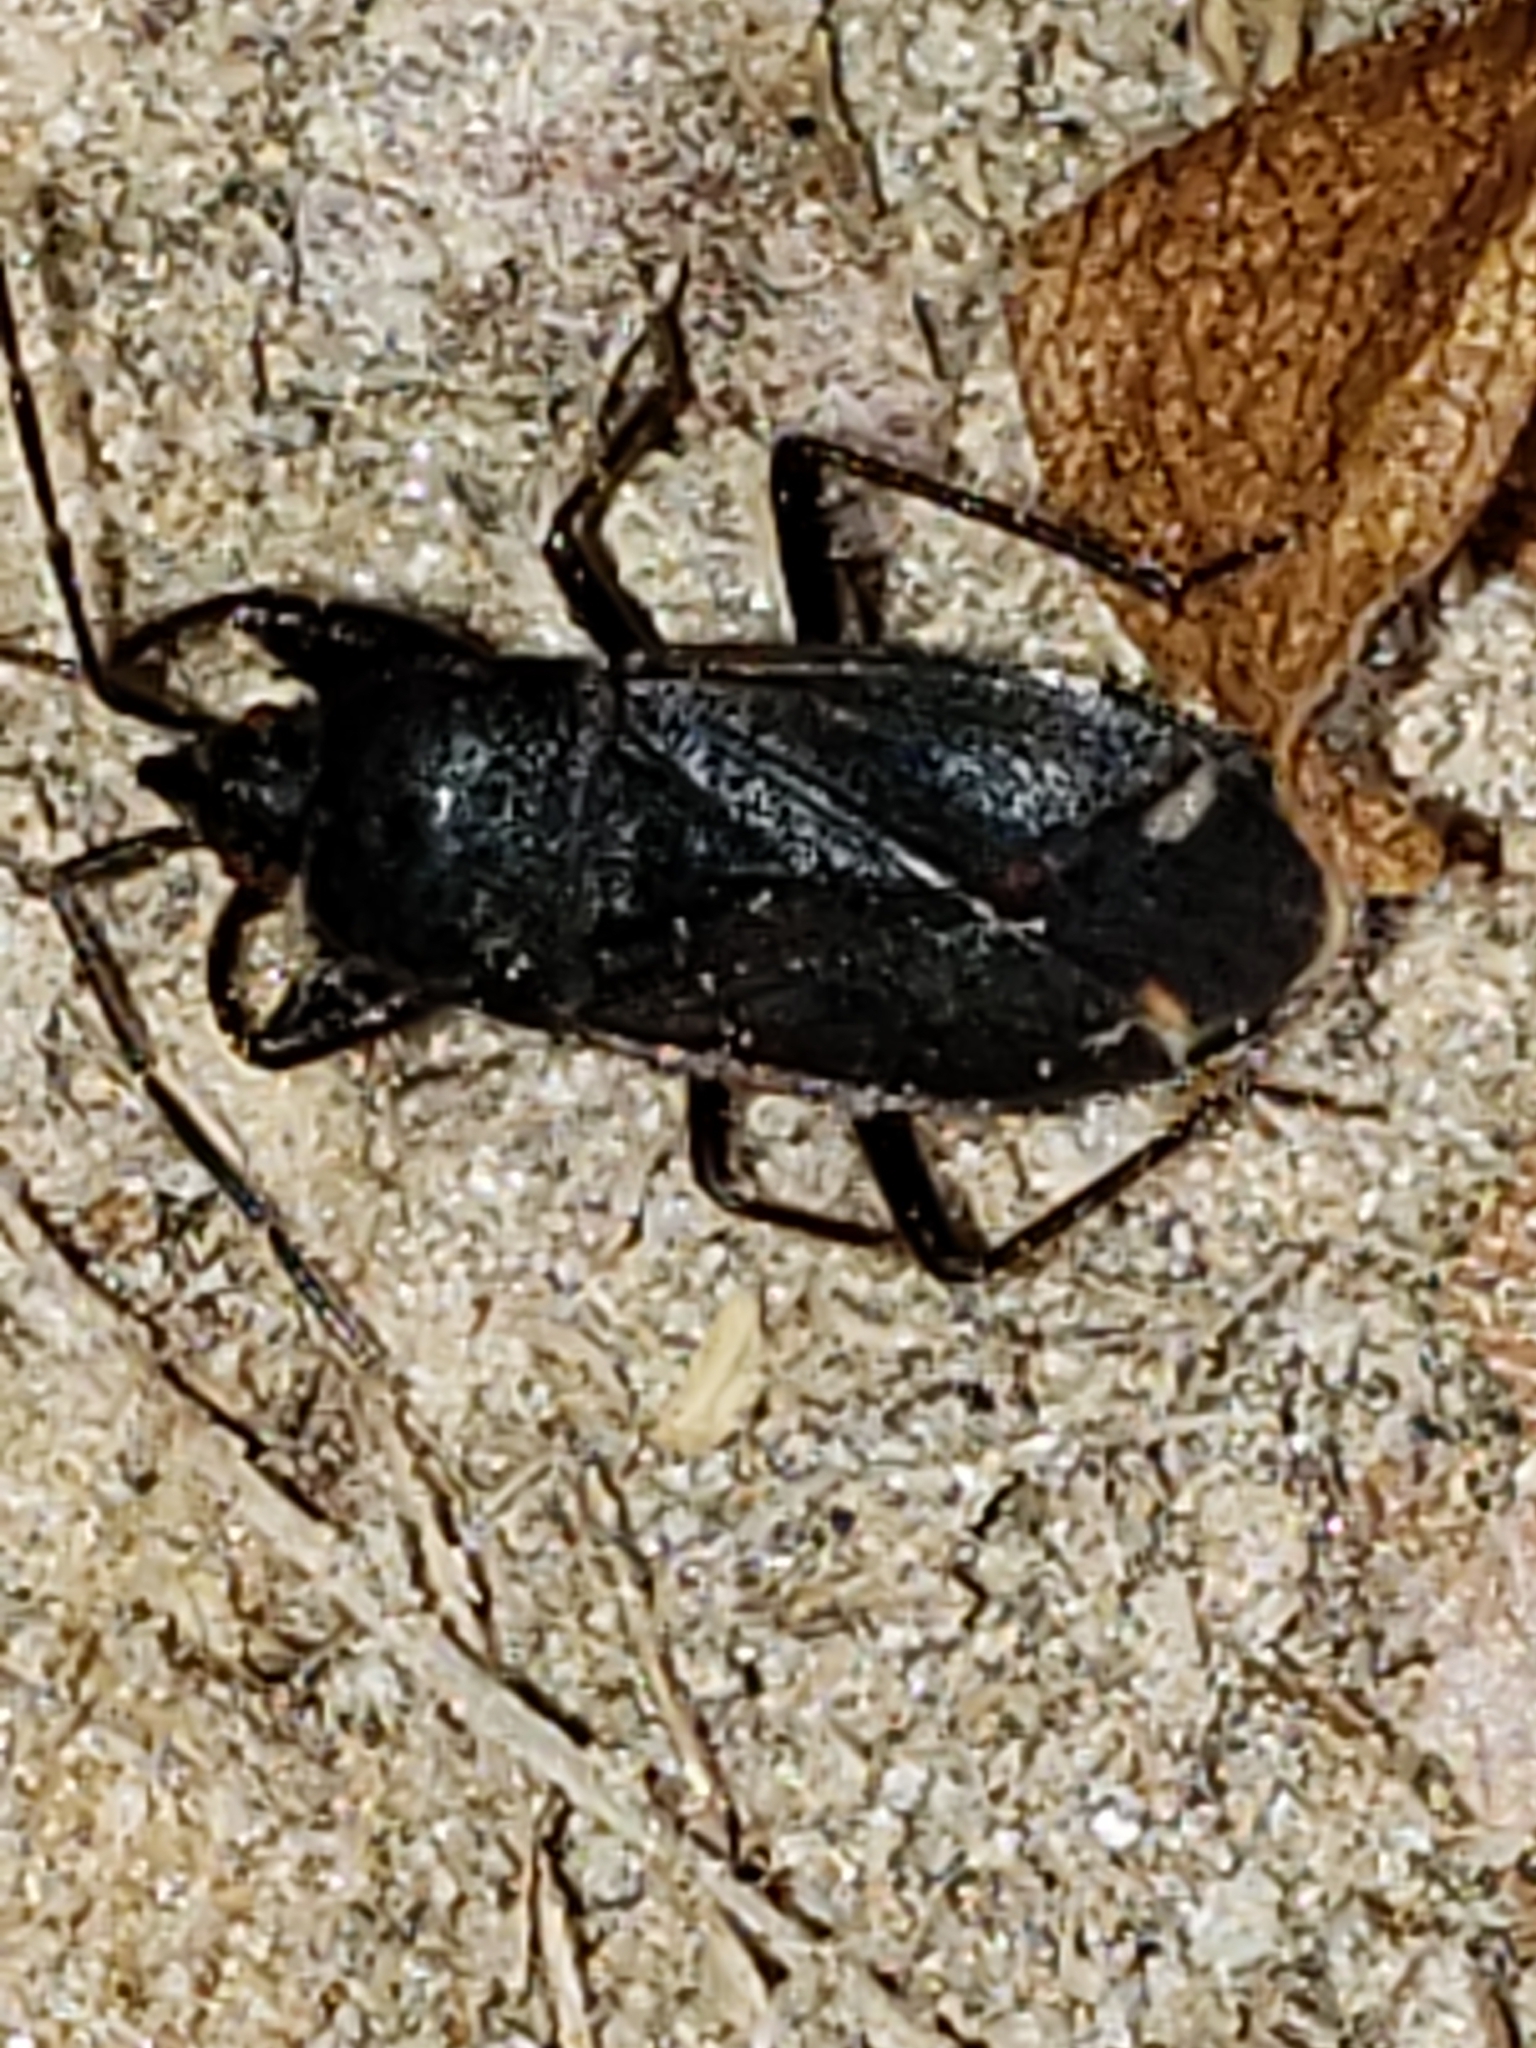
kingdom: Animalia
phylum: Arthropoda
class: Insecta
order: Hemiptera
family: Rhyparochromidae
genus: Eremocoris
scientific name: Eremocoris setosus
